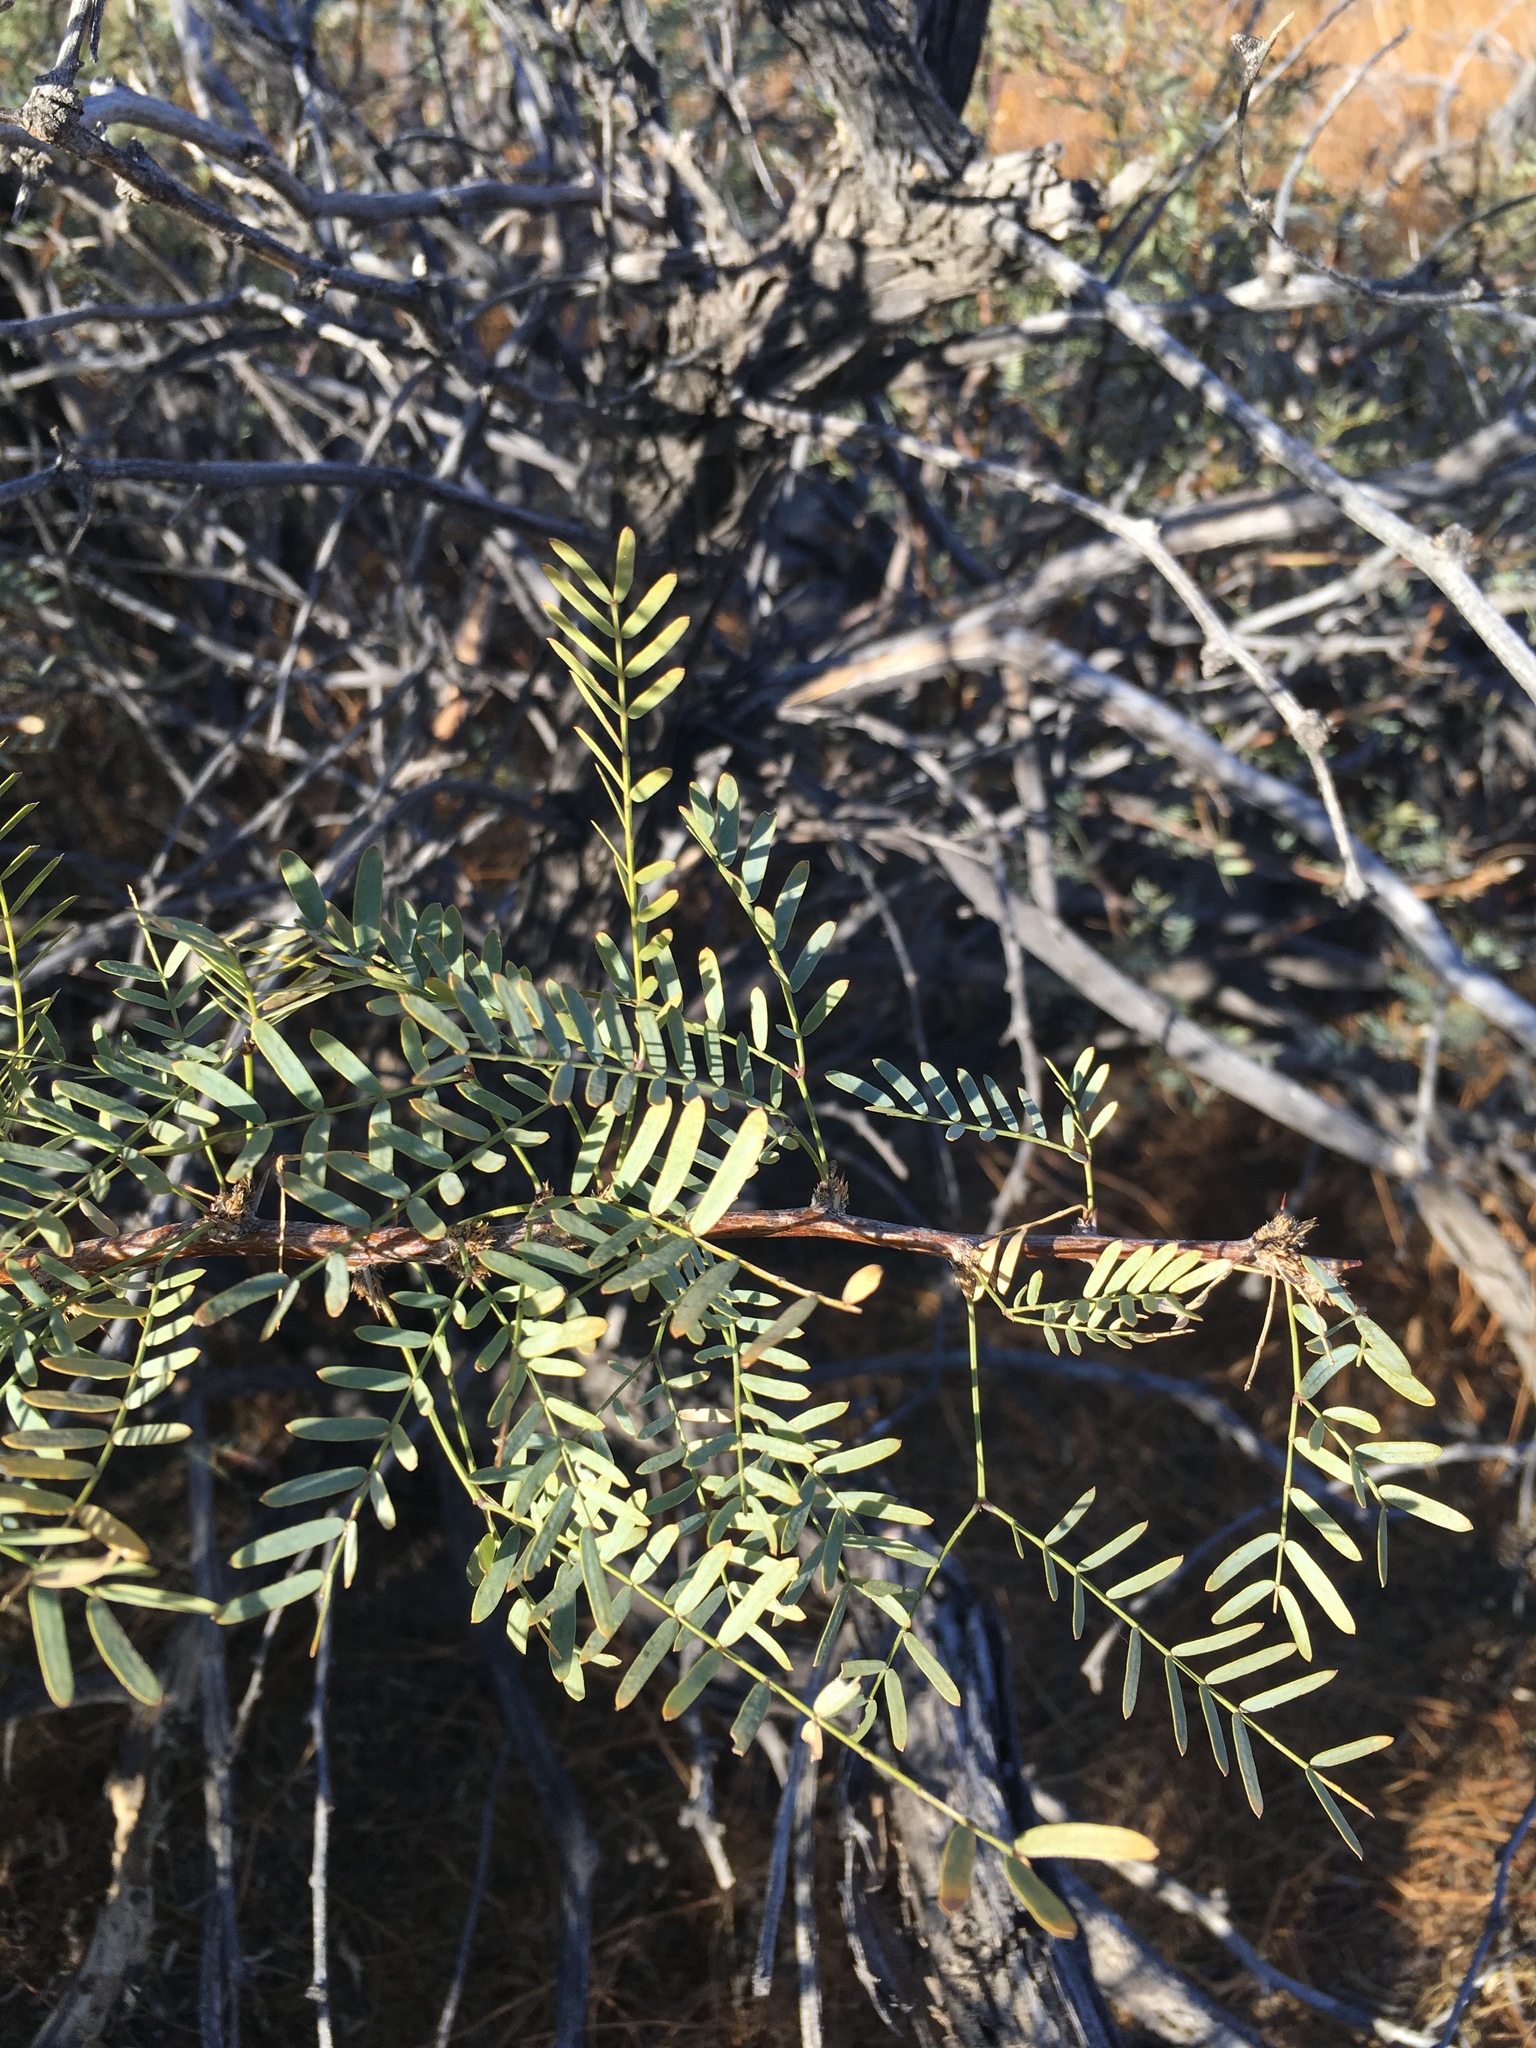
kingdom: Plantae
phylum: Tracheophyta
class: Magnoliopsida
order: Fabales
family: Fabaceae
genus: Prosopis
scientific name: Prosopis pubescens
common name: Screw-bean
